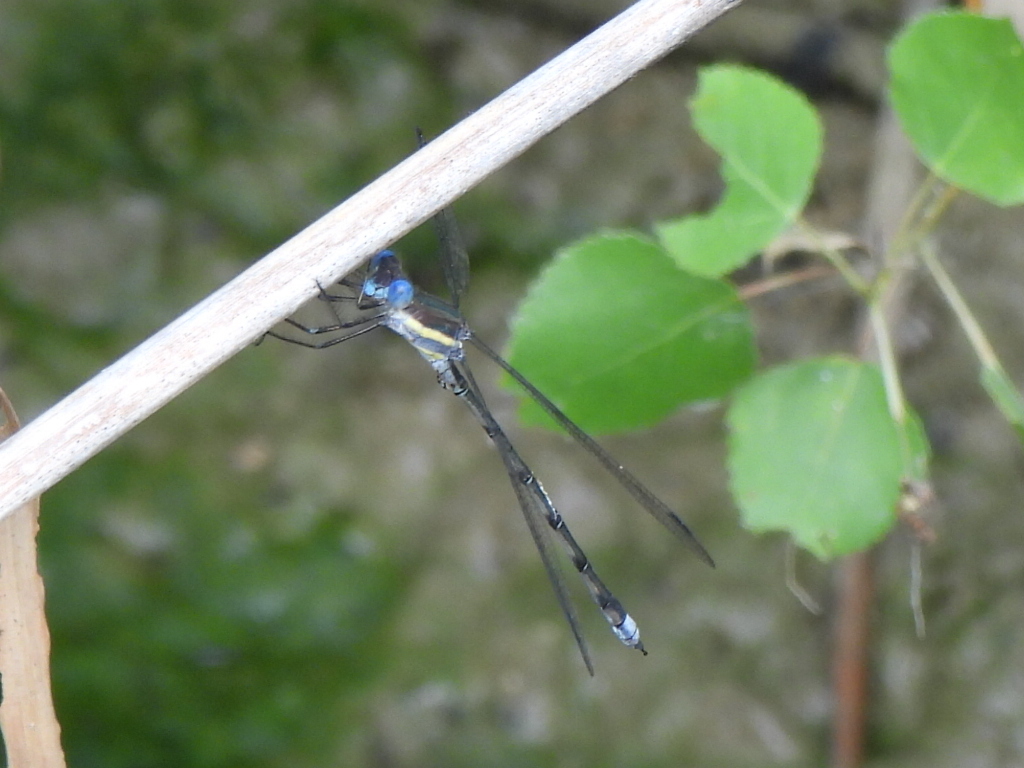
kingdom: Animalia
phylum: Arthropoda
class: Insecta
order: Odonata
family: Lestidae
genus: Archilestes
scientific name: Archilestes grandis
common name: Great spreadwing
